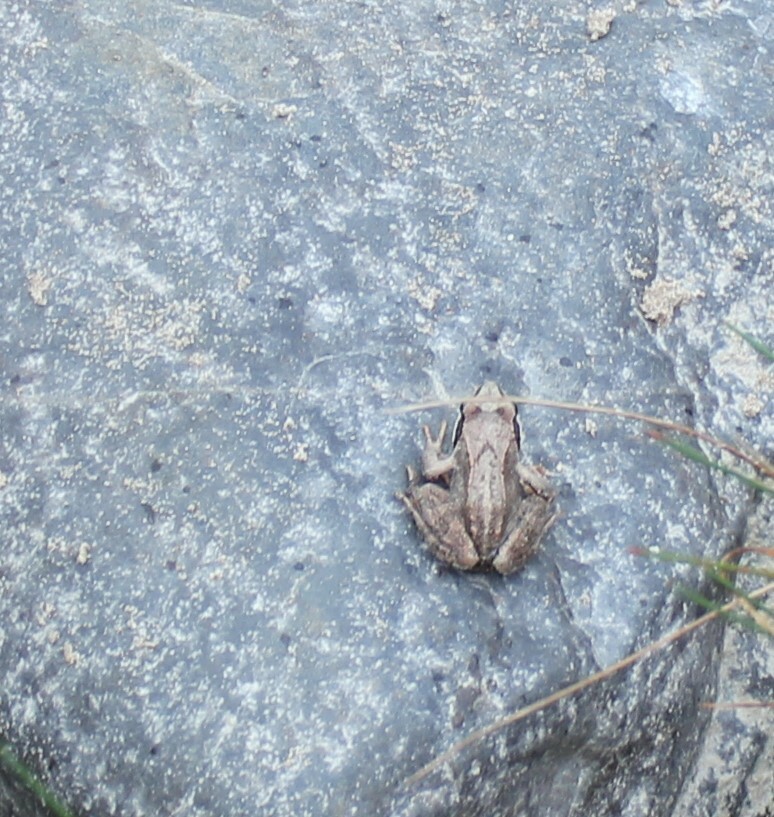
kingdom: Animalia
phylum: Chordata
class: Amphibia
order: Anura
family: Ranidae
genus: Rana
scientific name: Rana arvalis
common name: Moor frog
